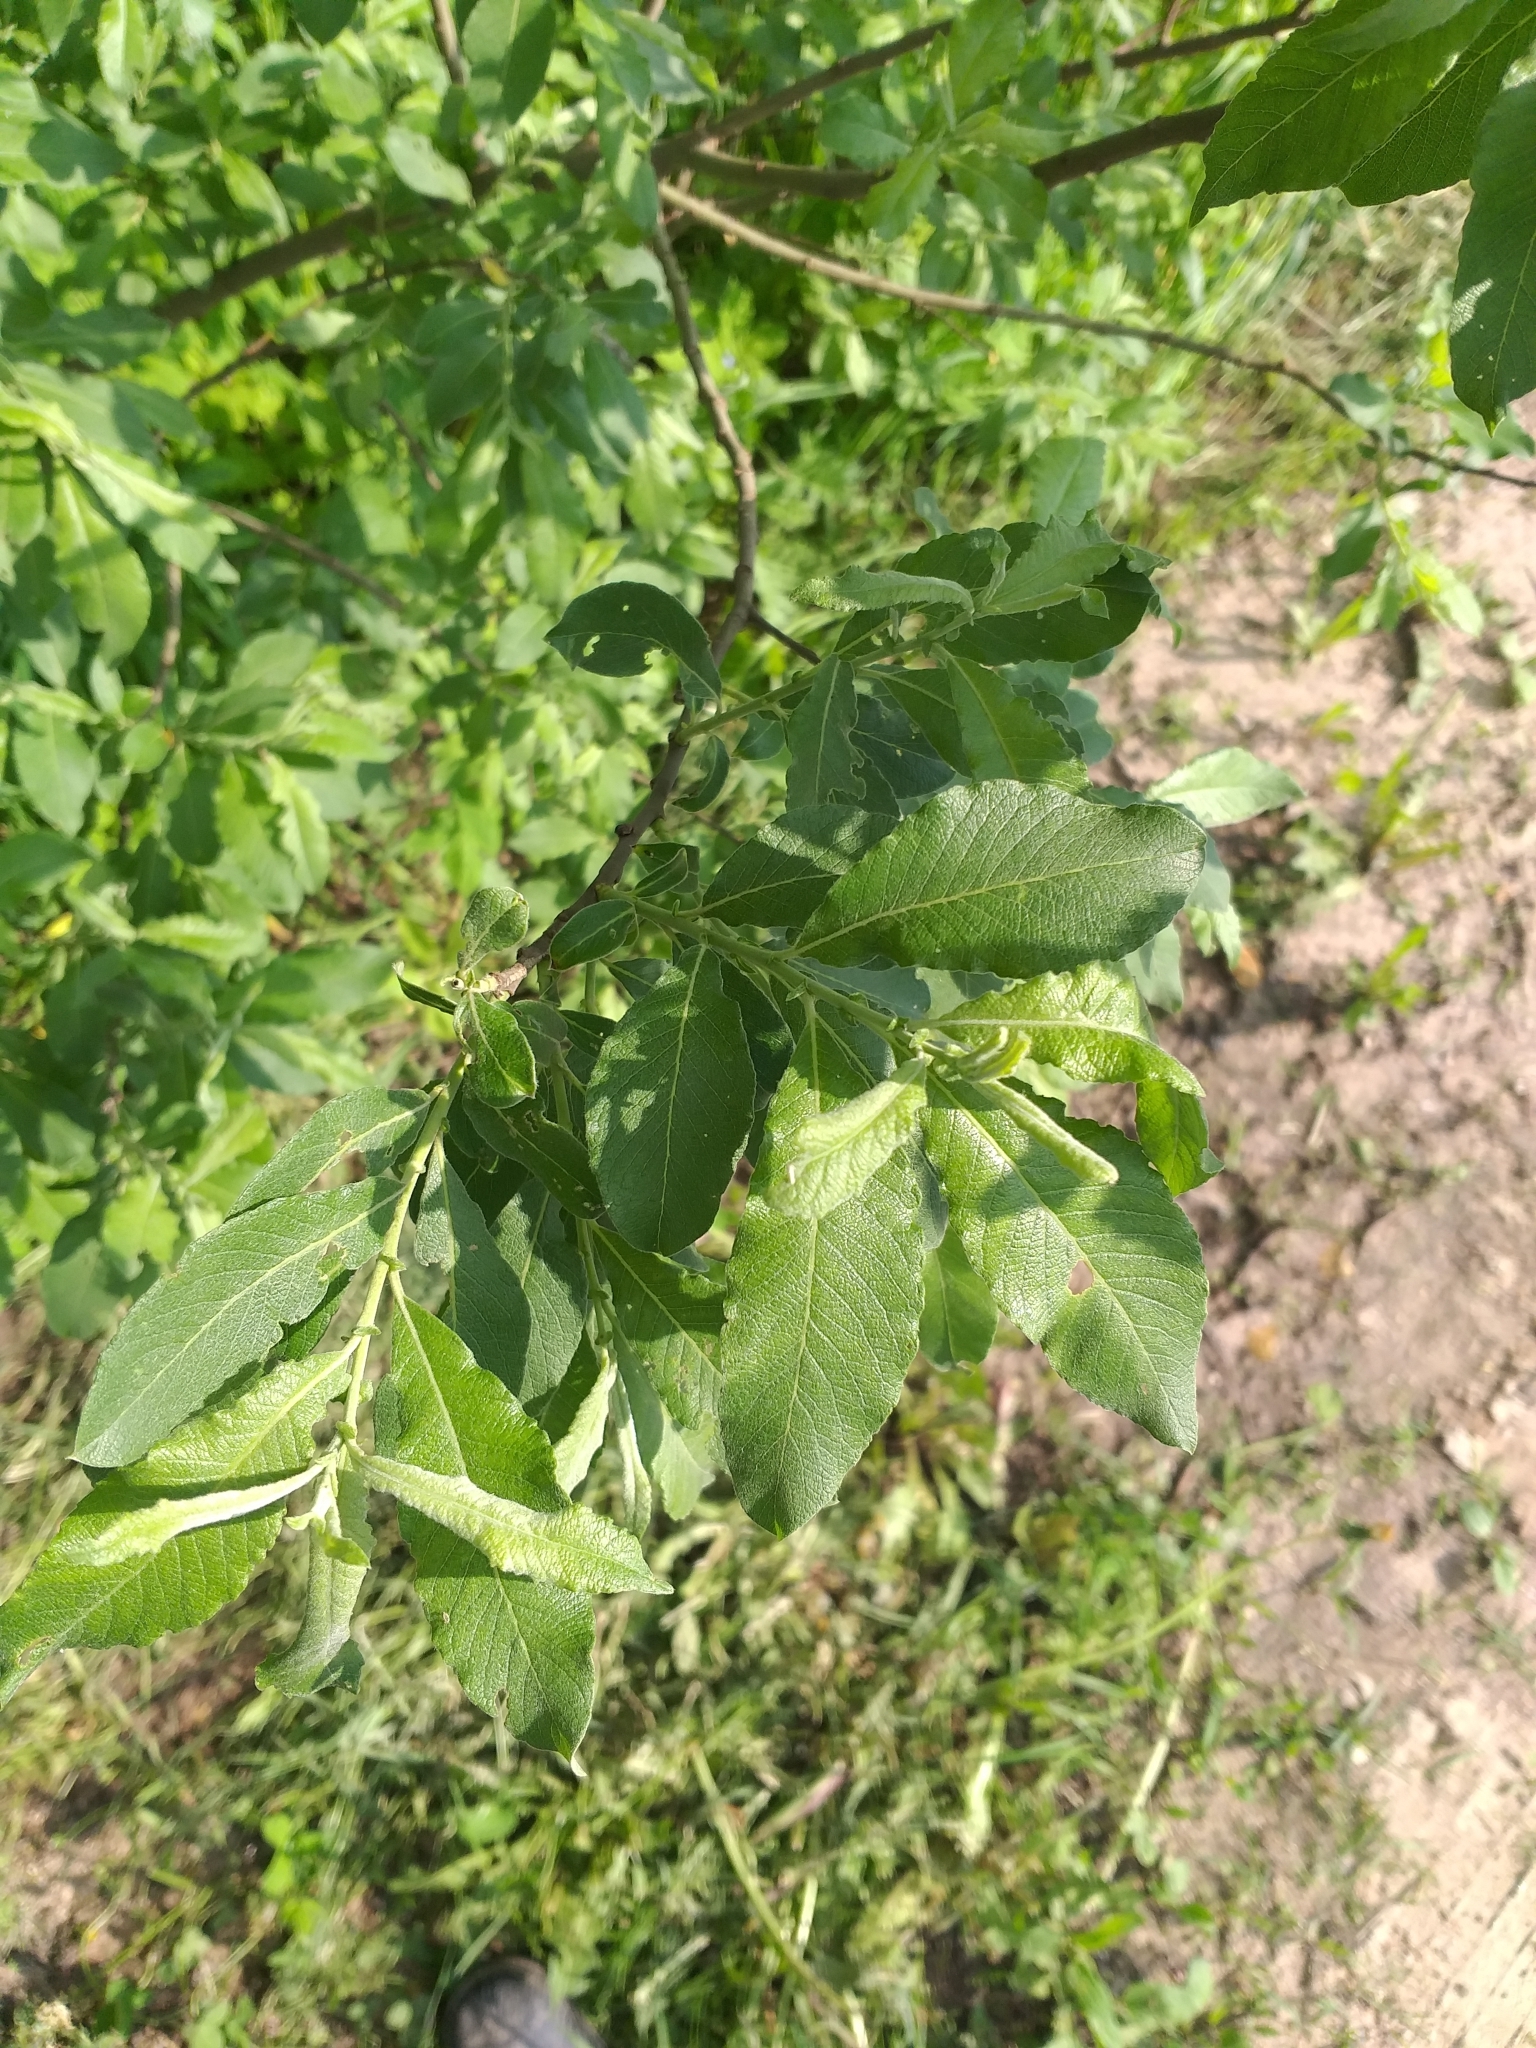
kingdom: Plantae
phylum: Tracheophyta
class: Magnoliopsida
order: Malpighiales
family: Salicaceae
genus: Salix
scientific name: Salix cinerea
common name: Common sallow
